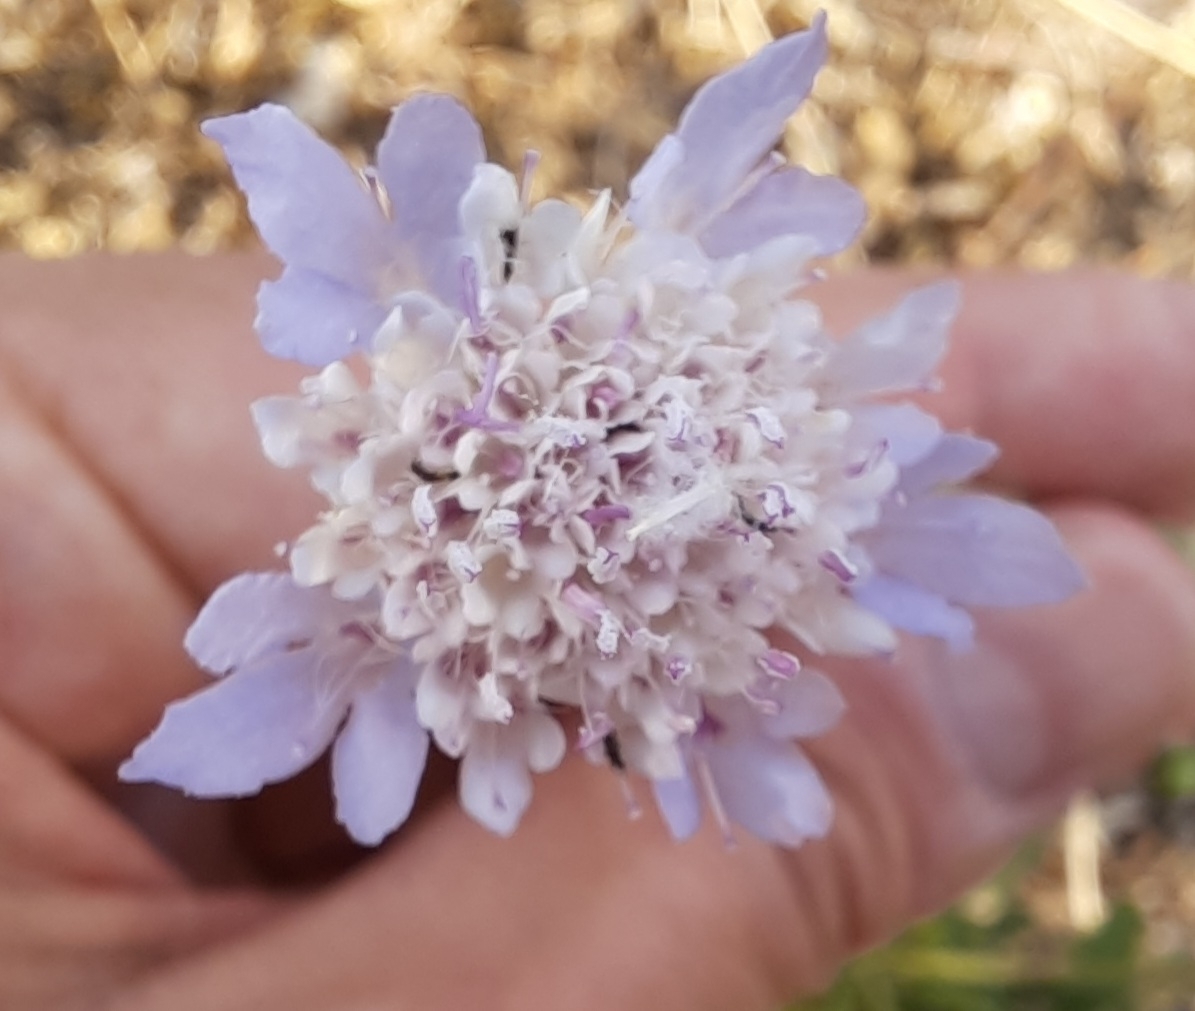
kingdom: Plantae
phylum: Tracheophyta
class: Magnoliopsida
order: Dipsacales
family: Caprifoliaceae
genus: Sixalix
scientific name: Sixalix atropurpurea
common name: Sweet scabious
